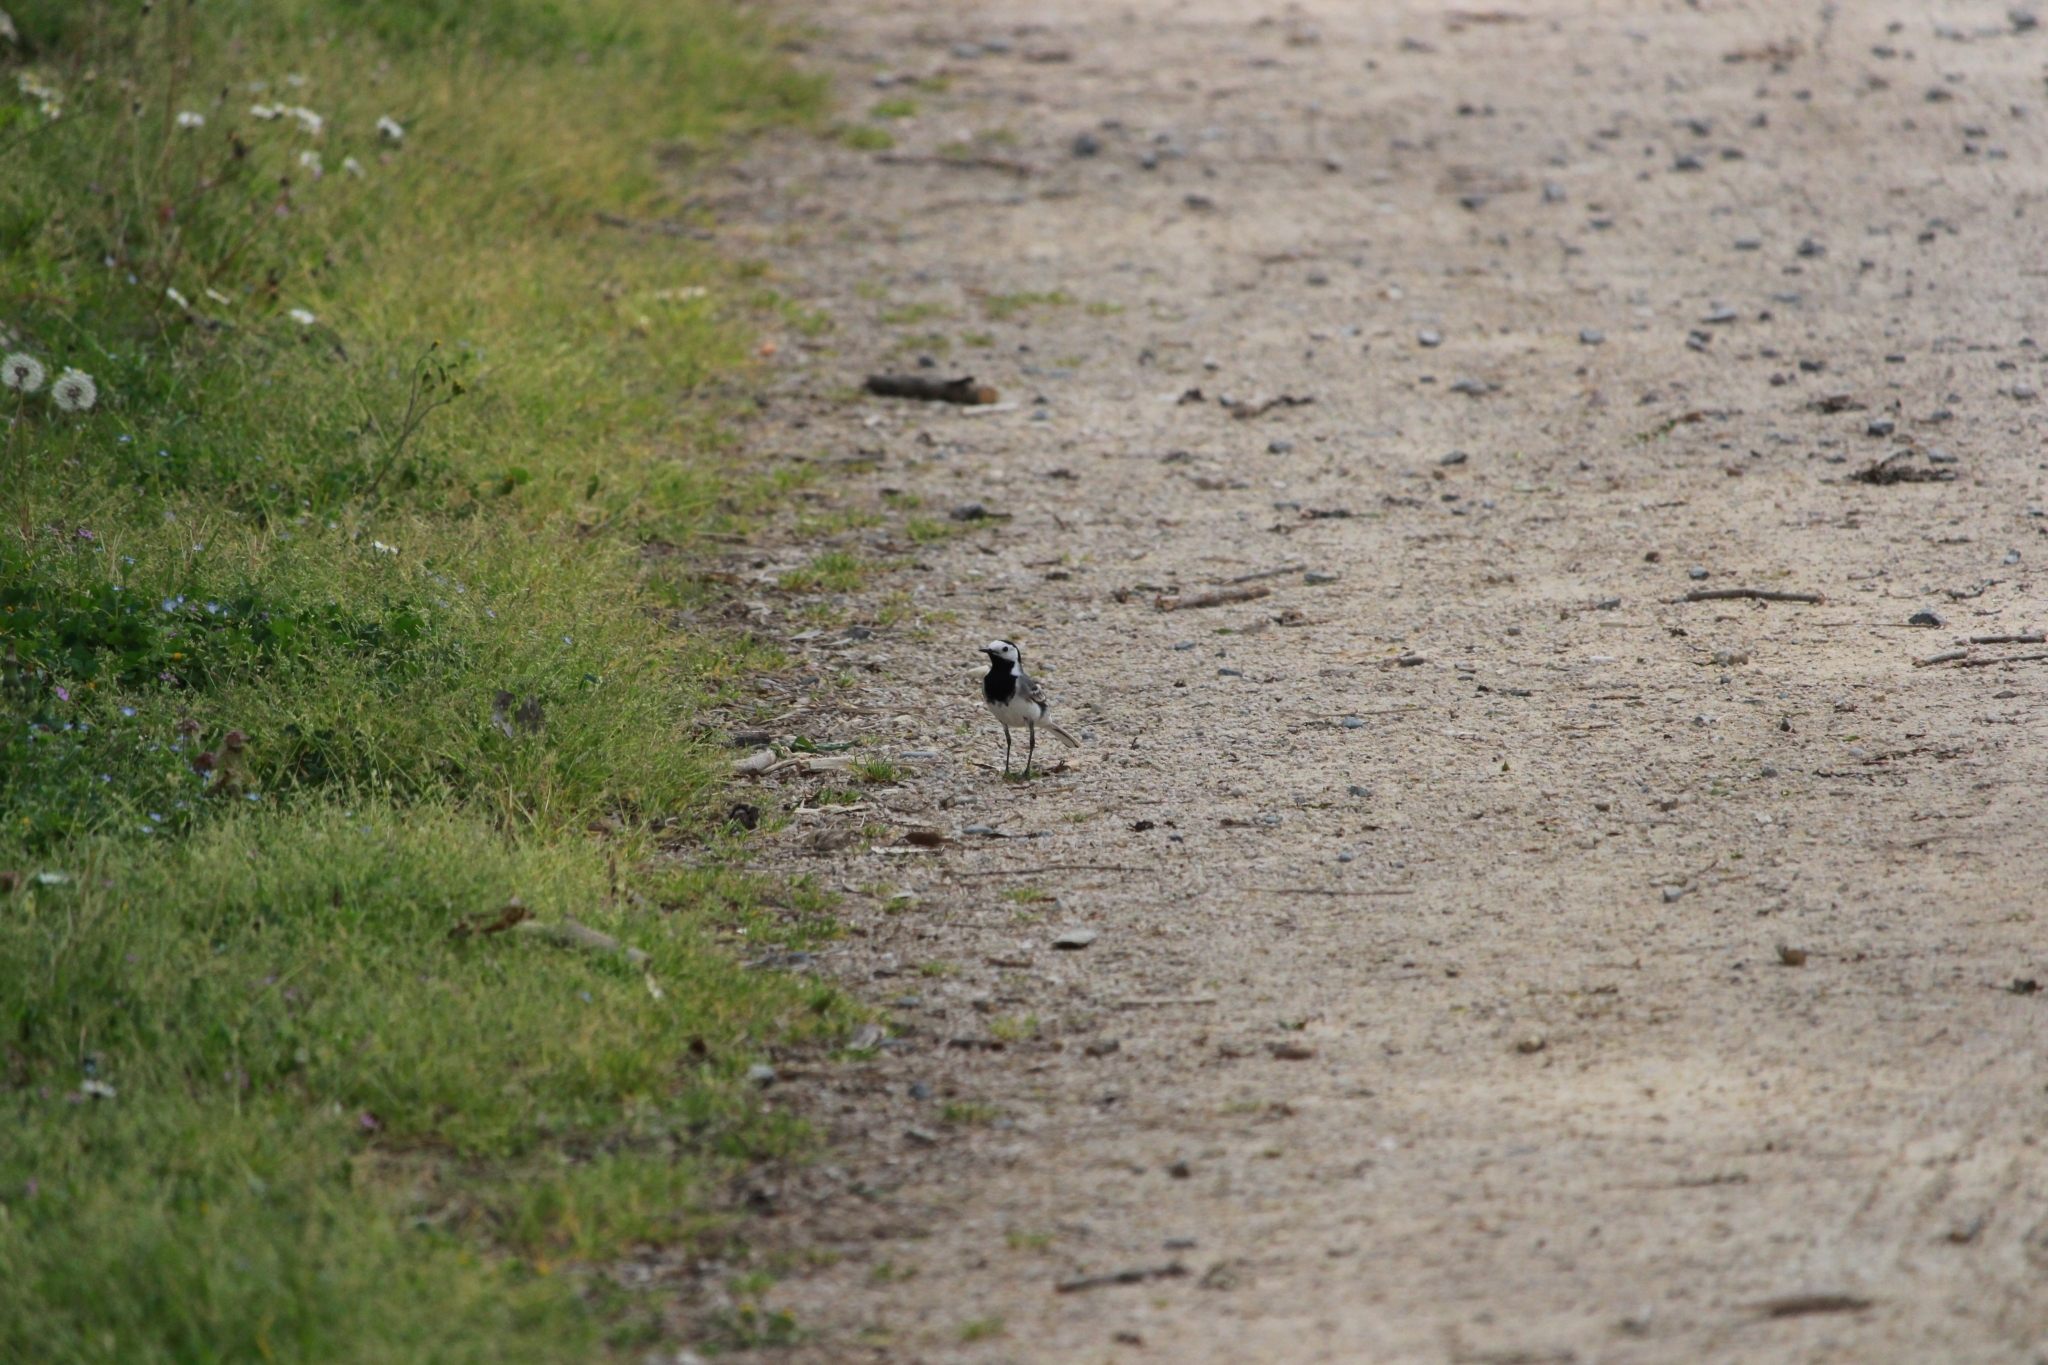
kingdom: Animalia
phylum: Chordata
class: Aves
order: Passeriformes
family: Motacillidae
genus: Motacilla
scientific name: Motacilla alba
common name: White wagtail
